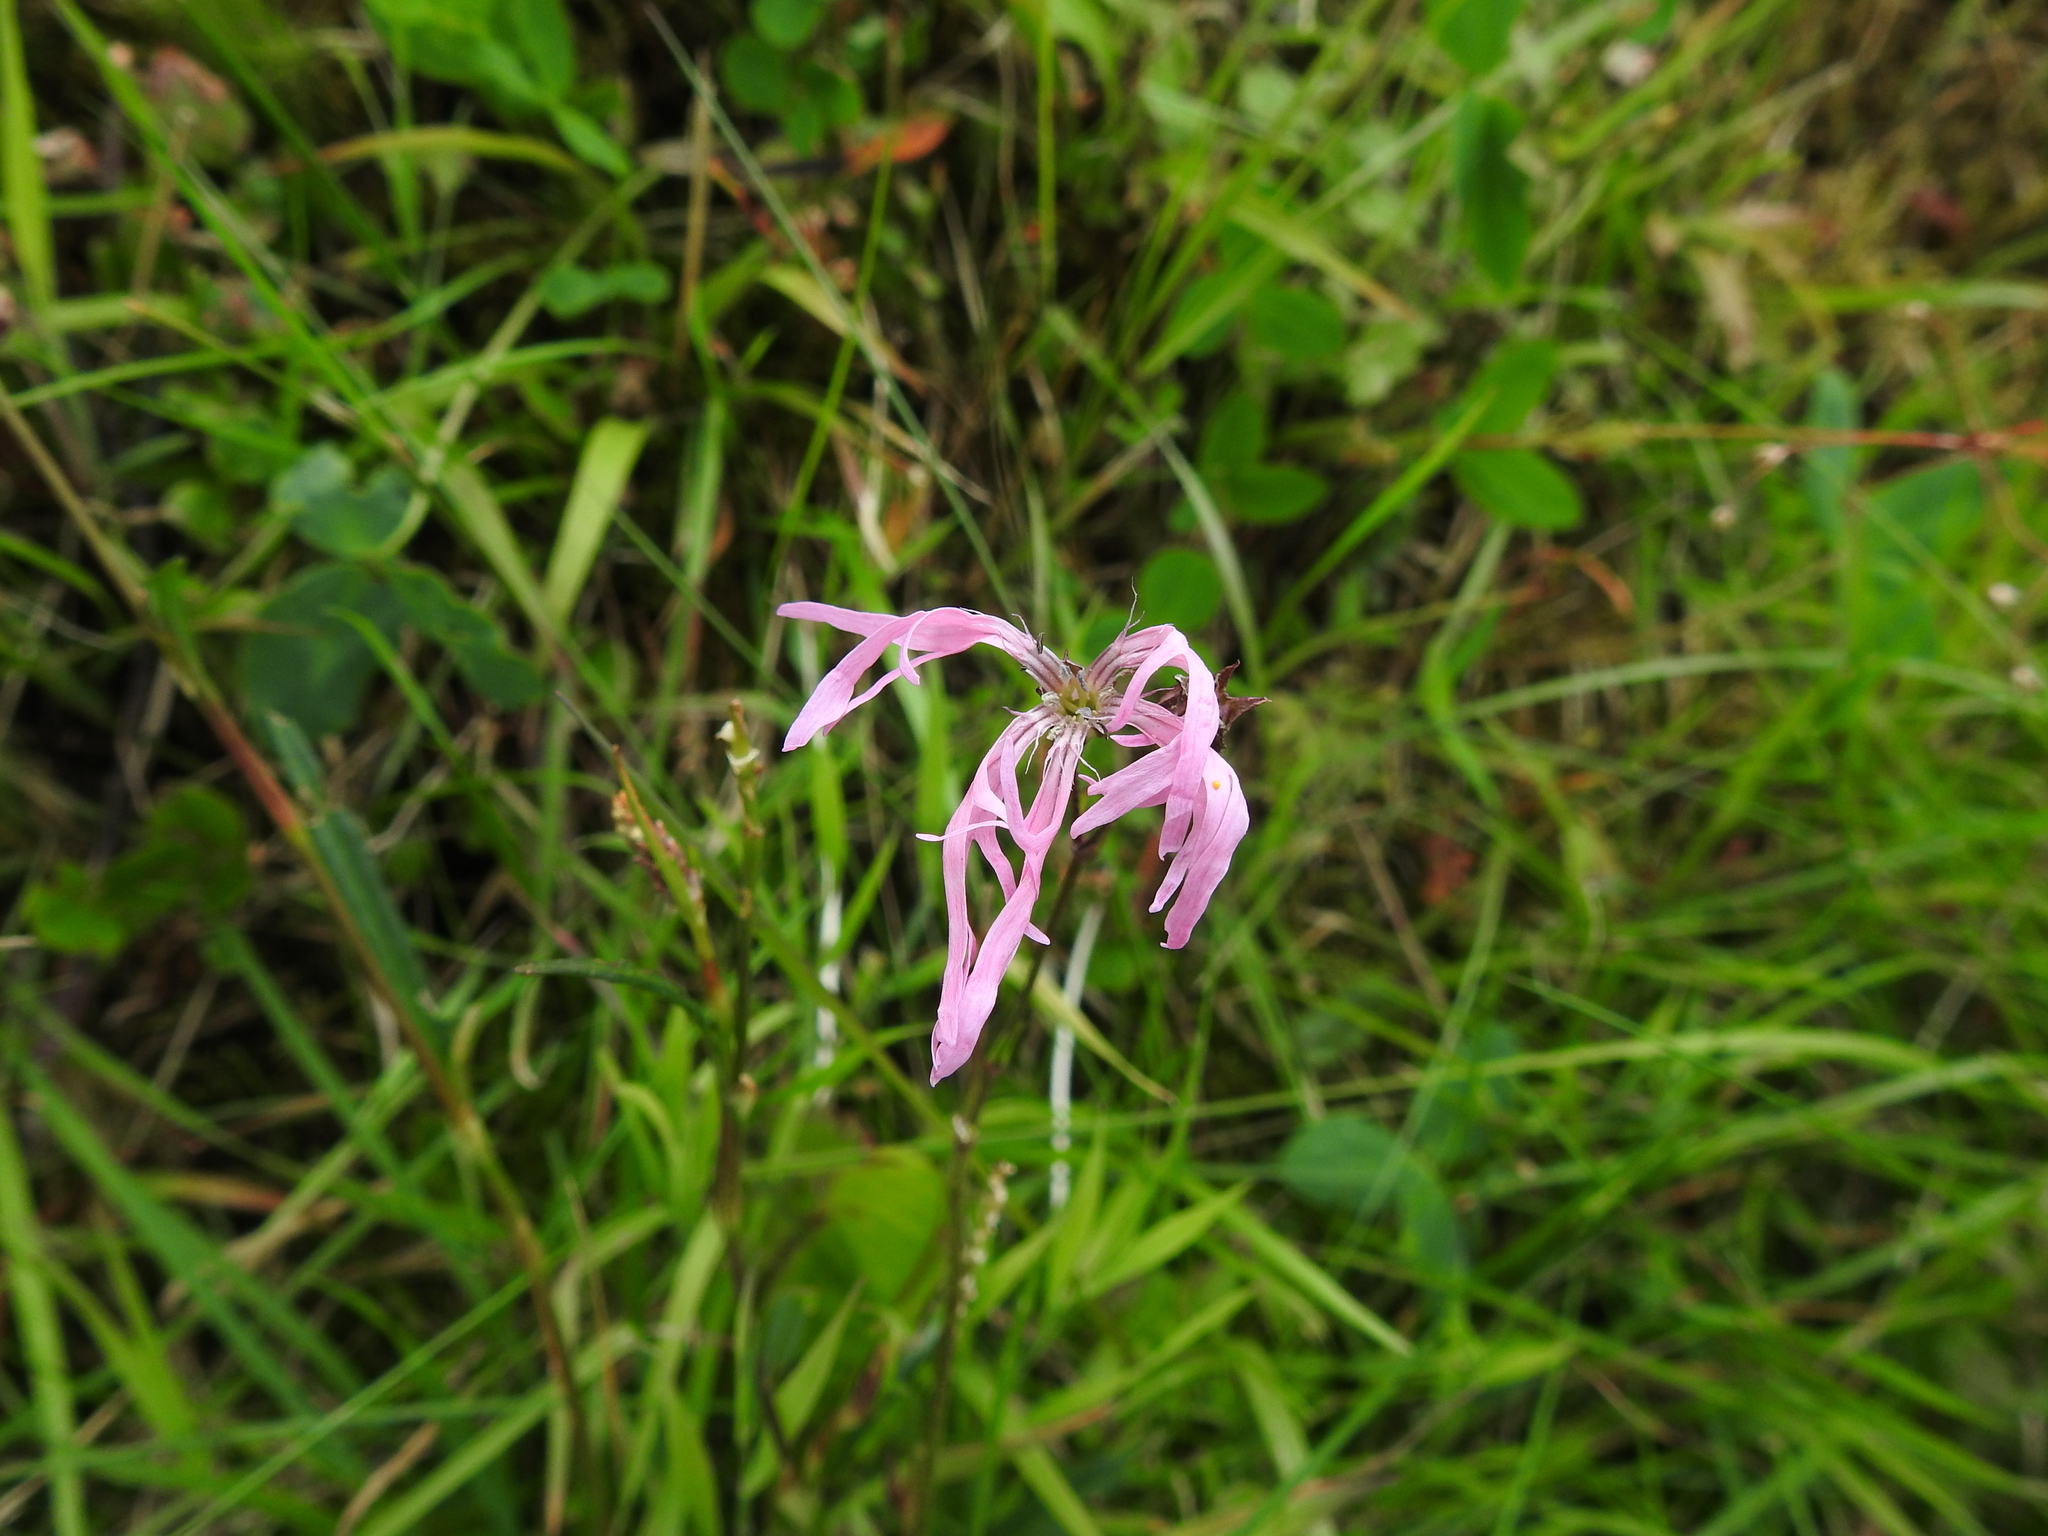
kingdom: Plantae
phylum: Tracheophyta
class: Magnoliopsida
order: Caryophyllales
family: Caryophyllaceae
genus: Silene
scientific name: Silene flos-cuculi
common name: Ragged-robin
